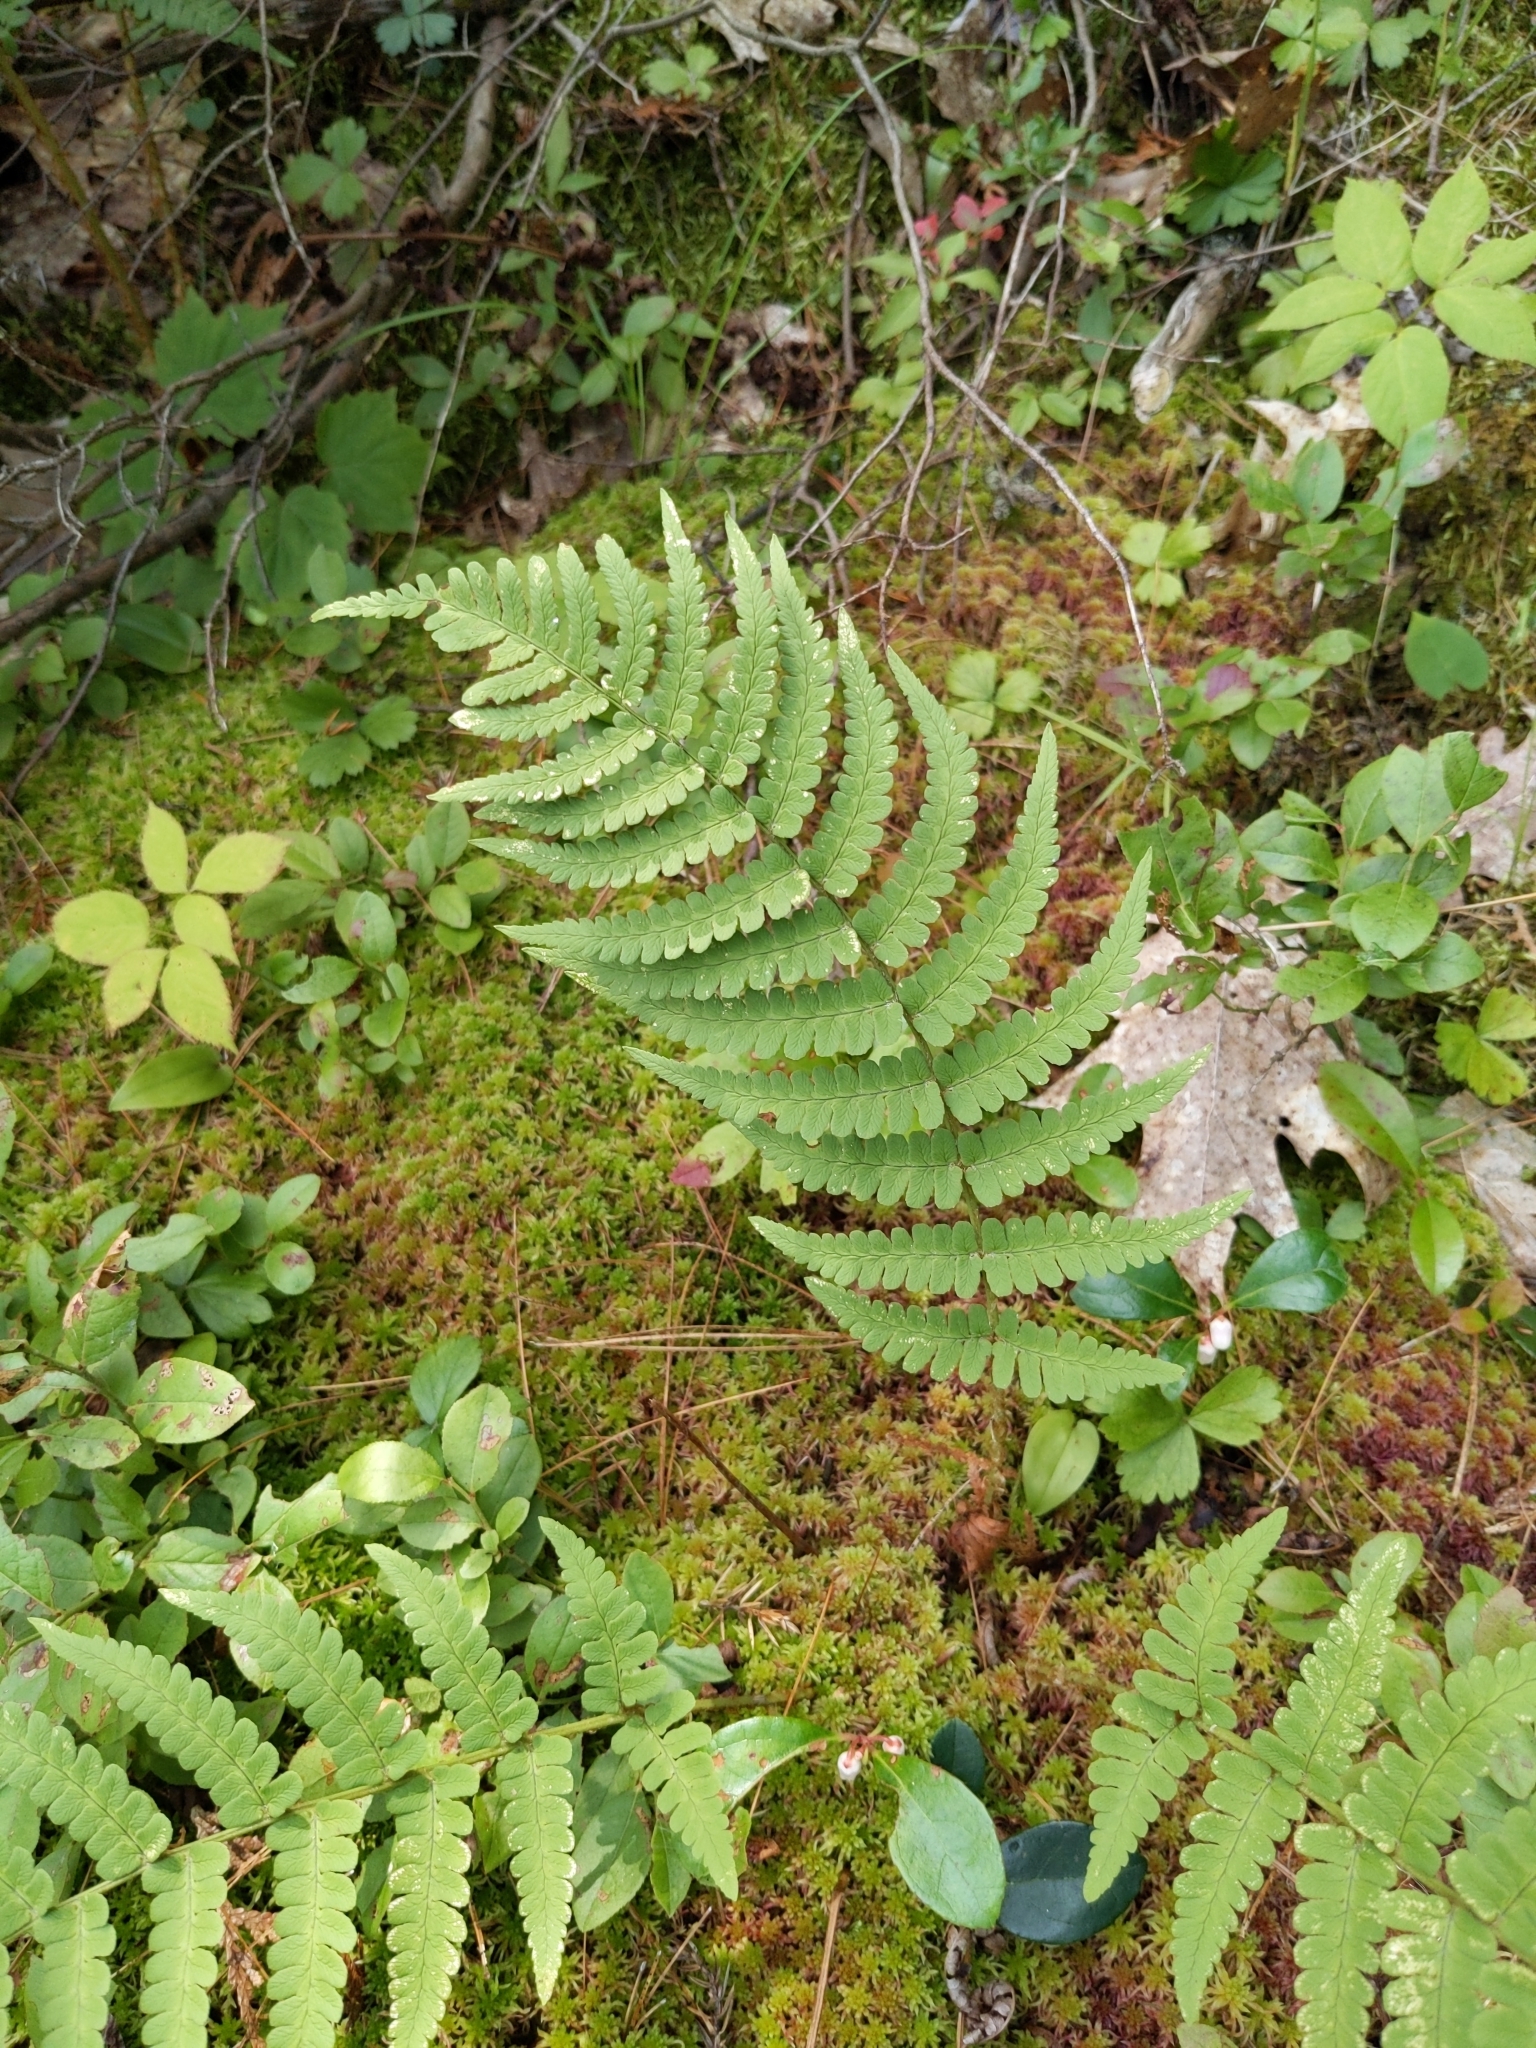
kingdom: Plantae
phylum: Tracheophyta
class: Polypodiopsida
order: Polypodiales
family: Dryopteridaceae
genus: Dryopteris
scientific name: Dryopteris marginalis
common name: Marginal wood fern
